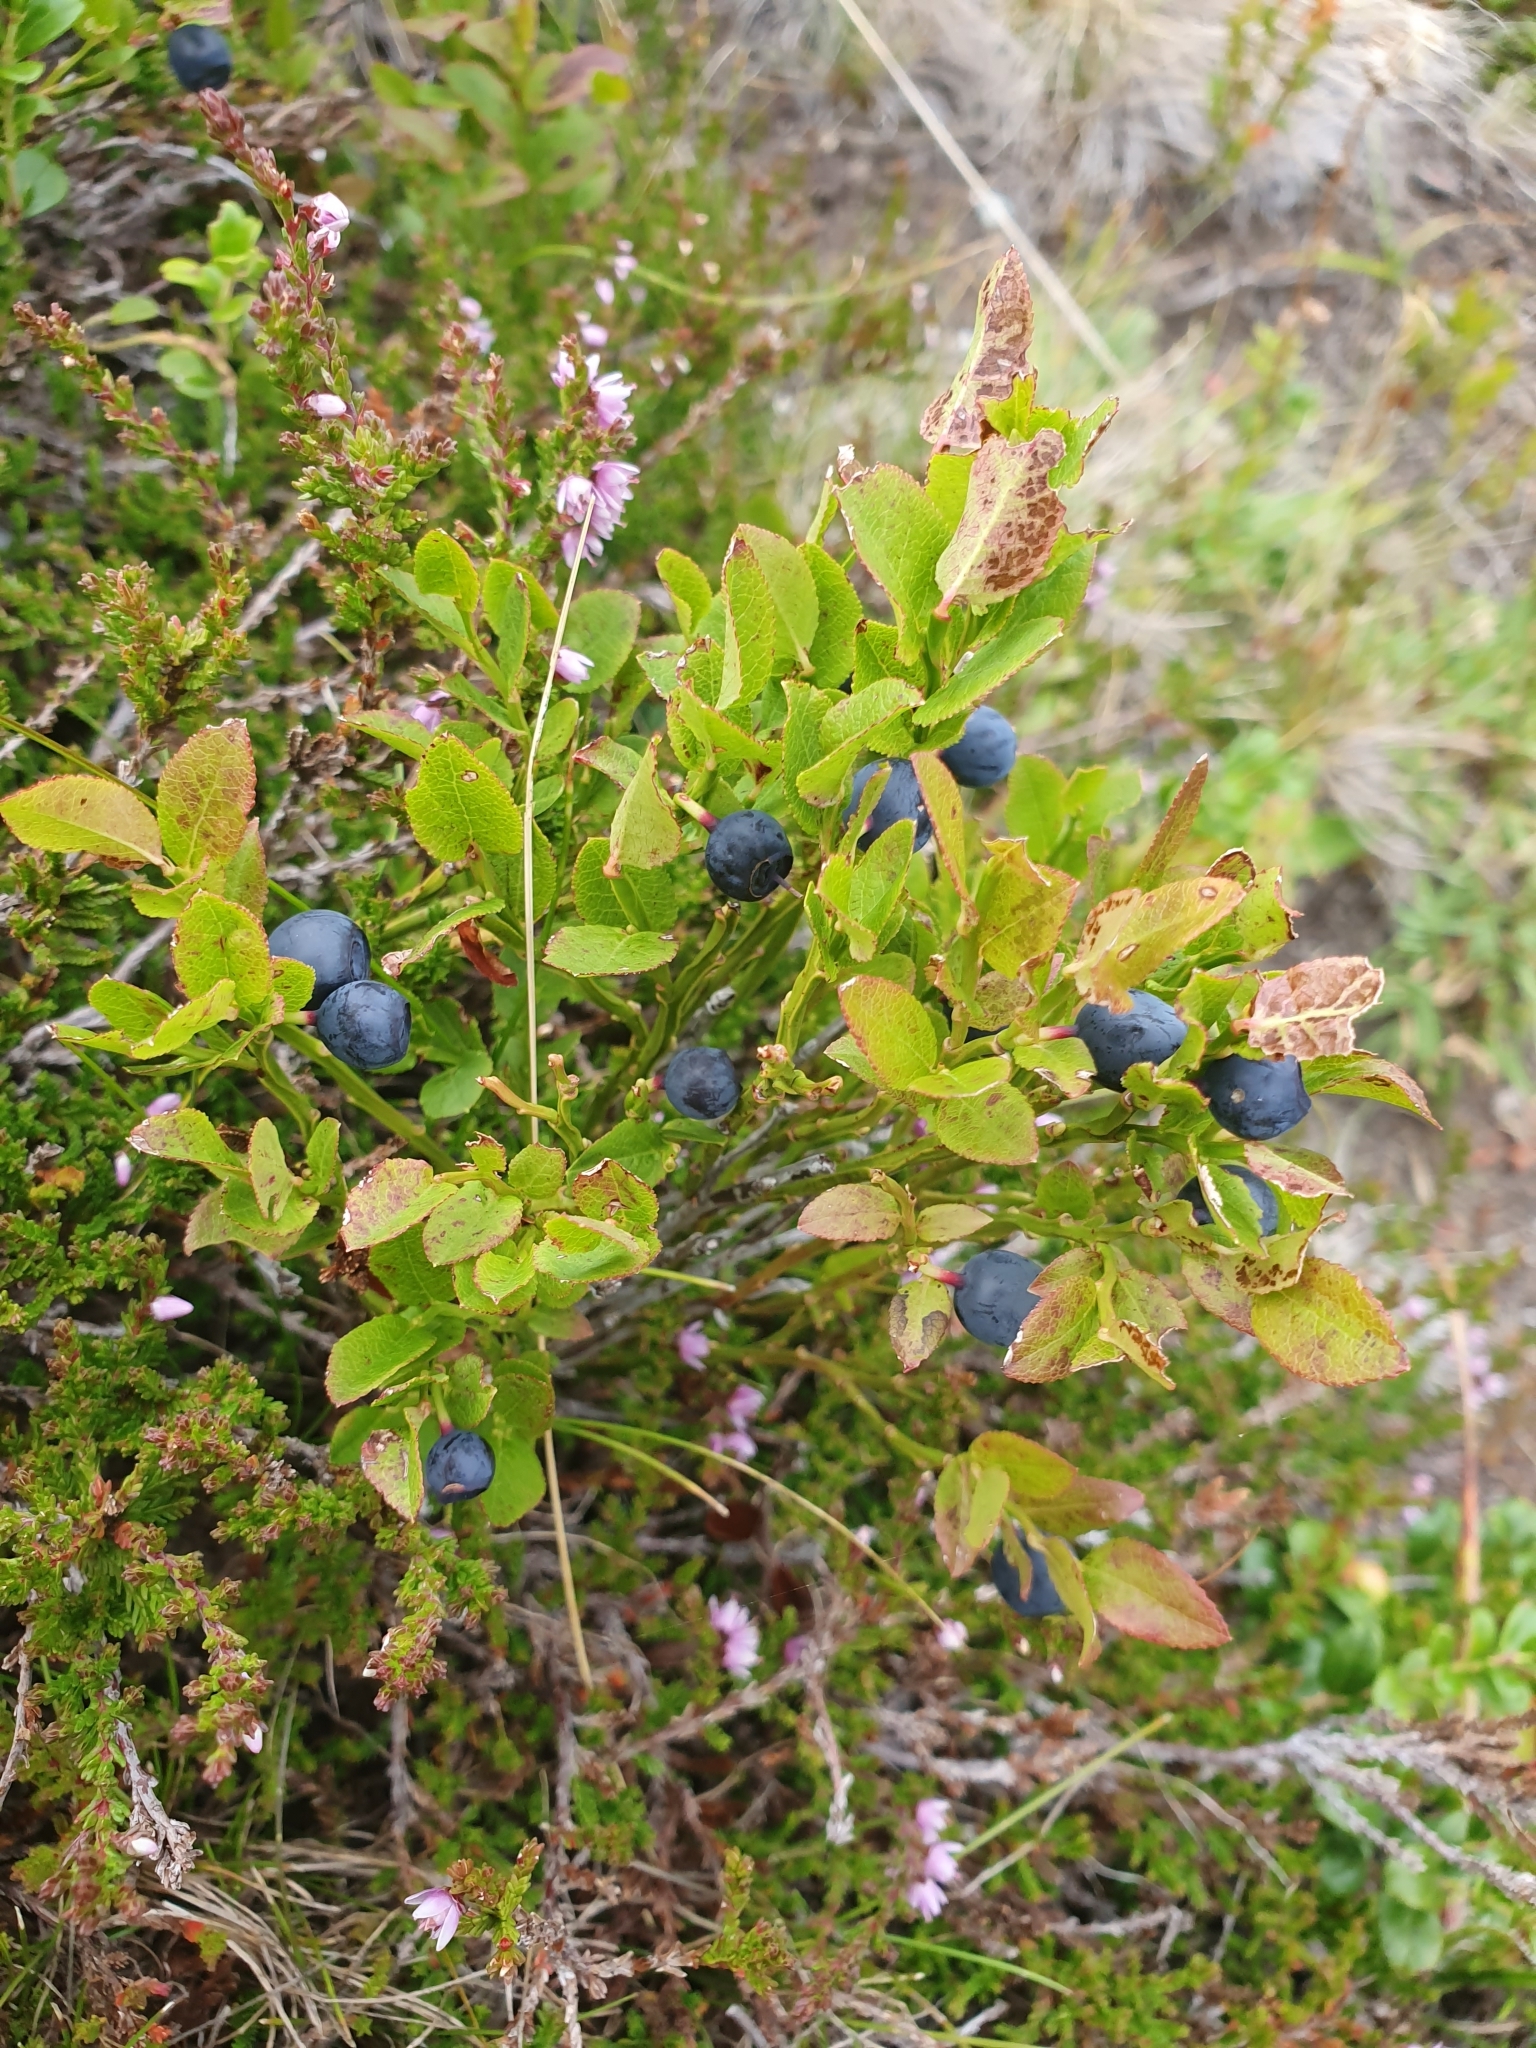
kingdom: Plantae
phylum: Tracheophyta
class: Magnoliopsida
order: Ericales
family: Ericaceae
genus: Vaccinium
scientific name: Vaccinium myrtillus
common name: Bilberry
